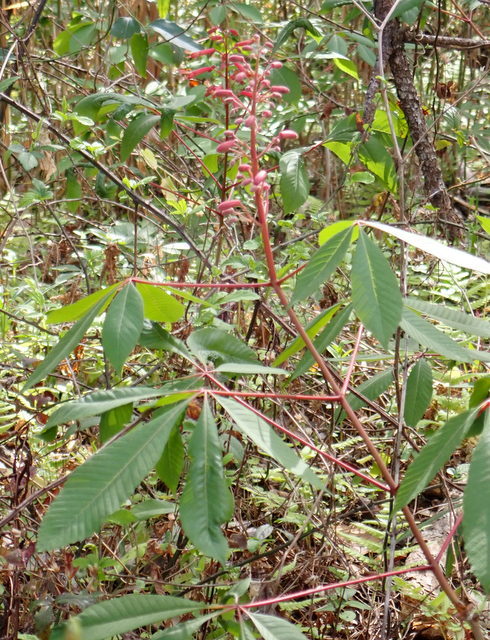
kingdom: Plantae
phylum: Tracheophyta
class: Magnoliopsida
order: Sapindales
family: Sapindaceae
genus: Aesculus
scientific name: Aesculus pavia
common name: Red buckeye
